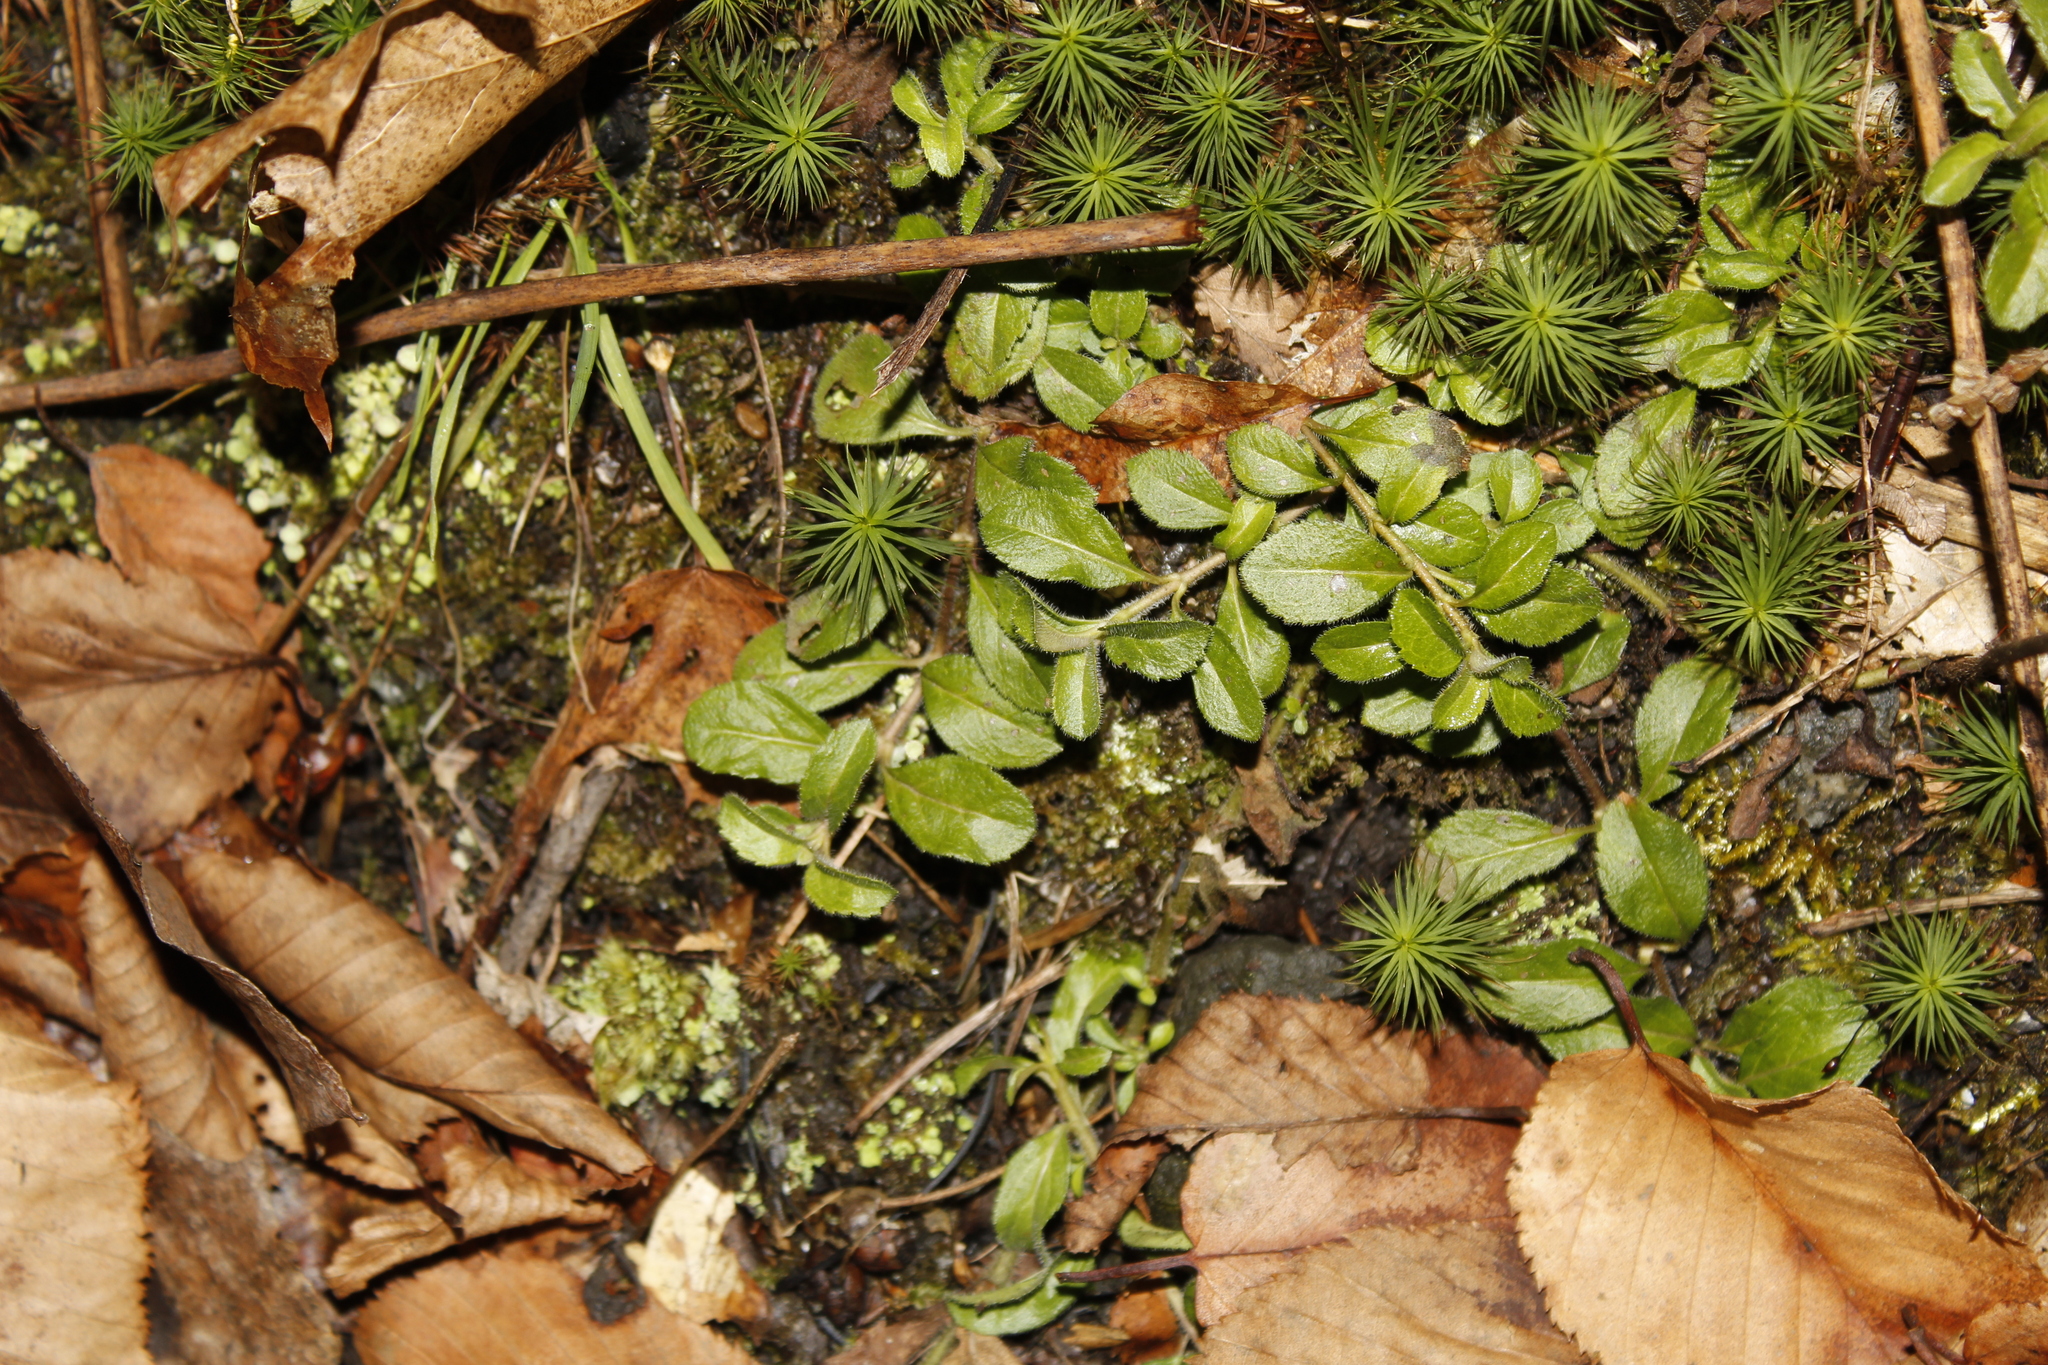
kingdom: Plantae
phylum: Tracheophyta
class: Magnoliopsida
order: Lamiales
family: Plantaginaceae
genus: Veronica
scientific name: Veronica officinalis
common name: Common speedwell
